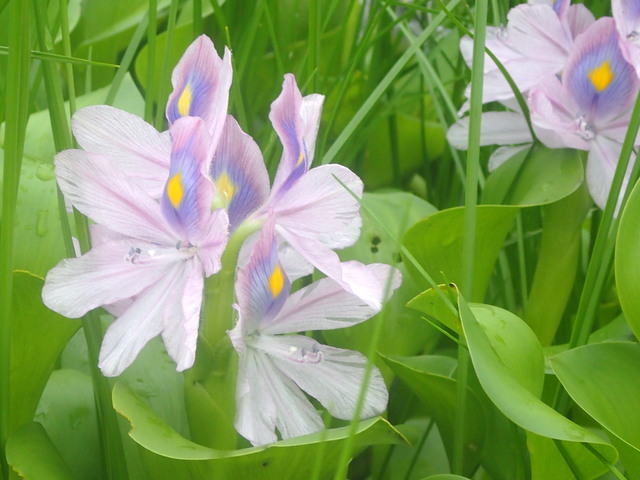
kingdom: Plantae
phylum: Tracheophyta
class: Liliopsida
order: Commelinales
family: Pontederiaceae
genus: Pontederia
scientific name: Pontederia crassipes
